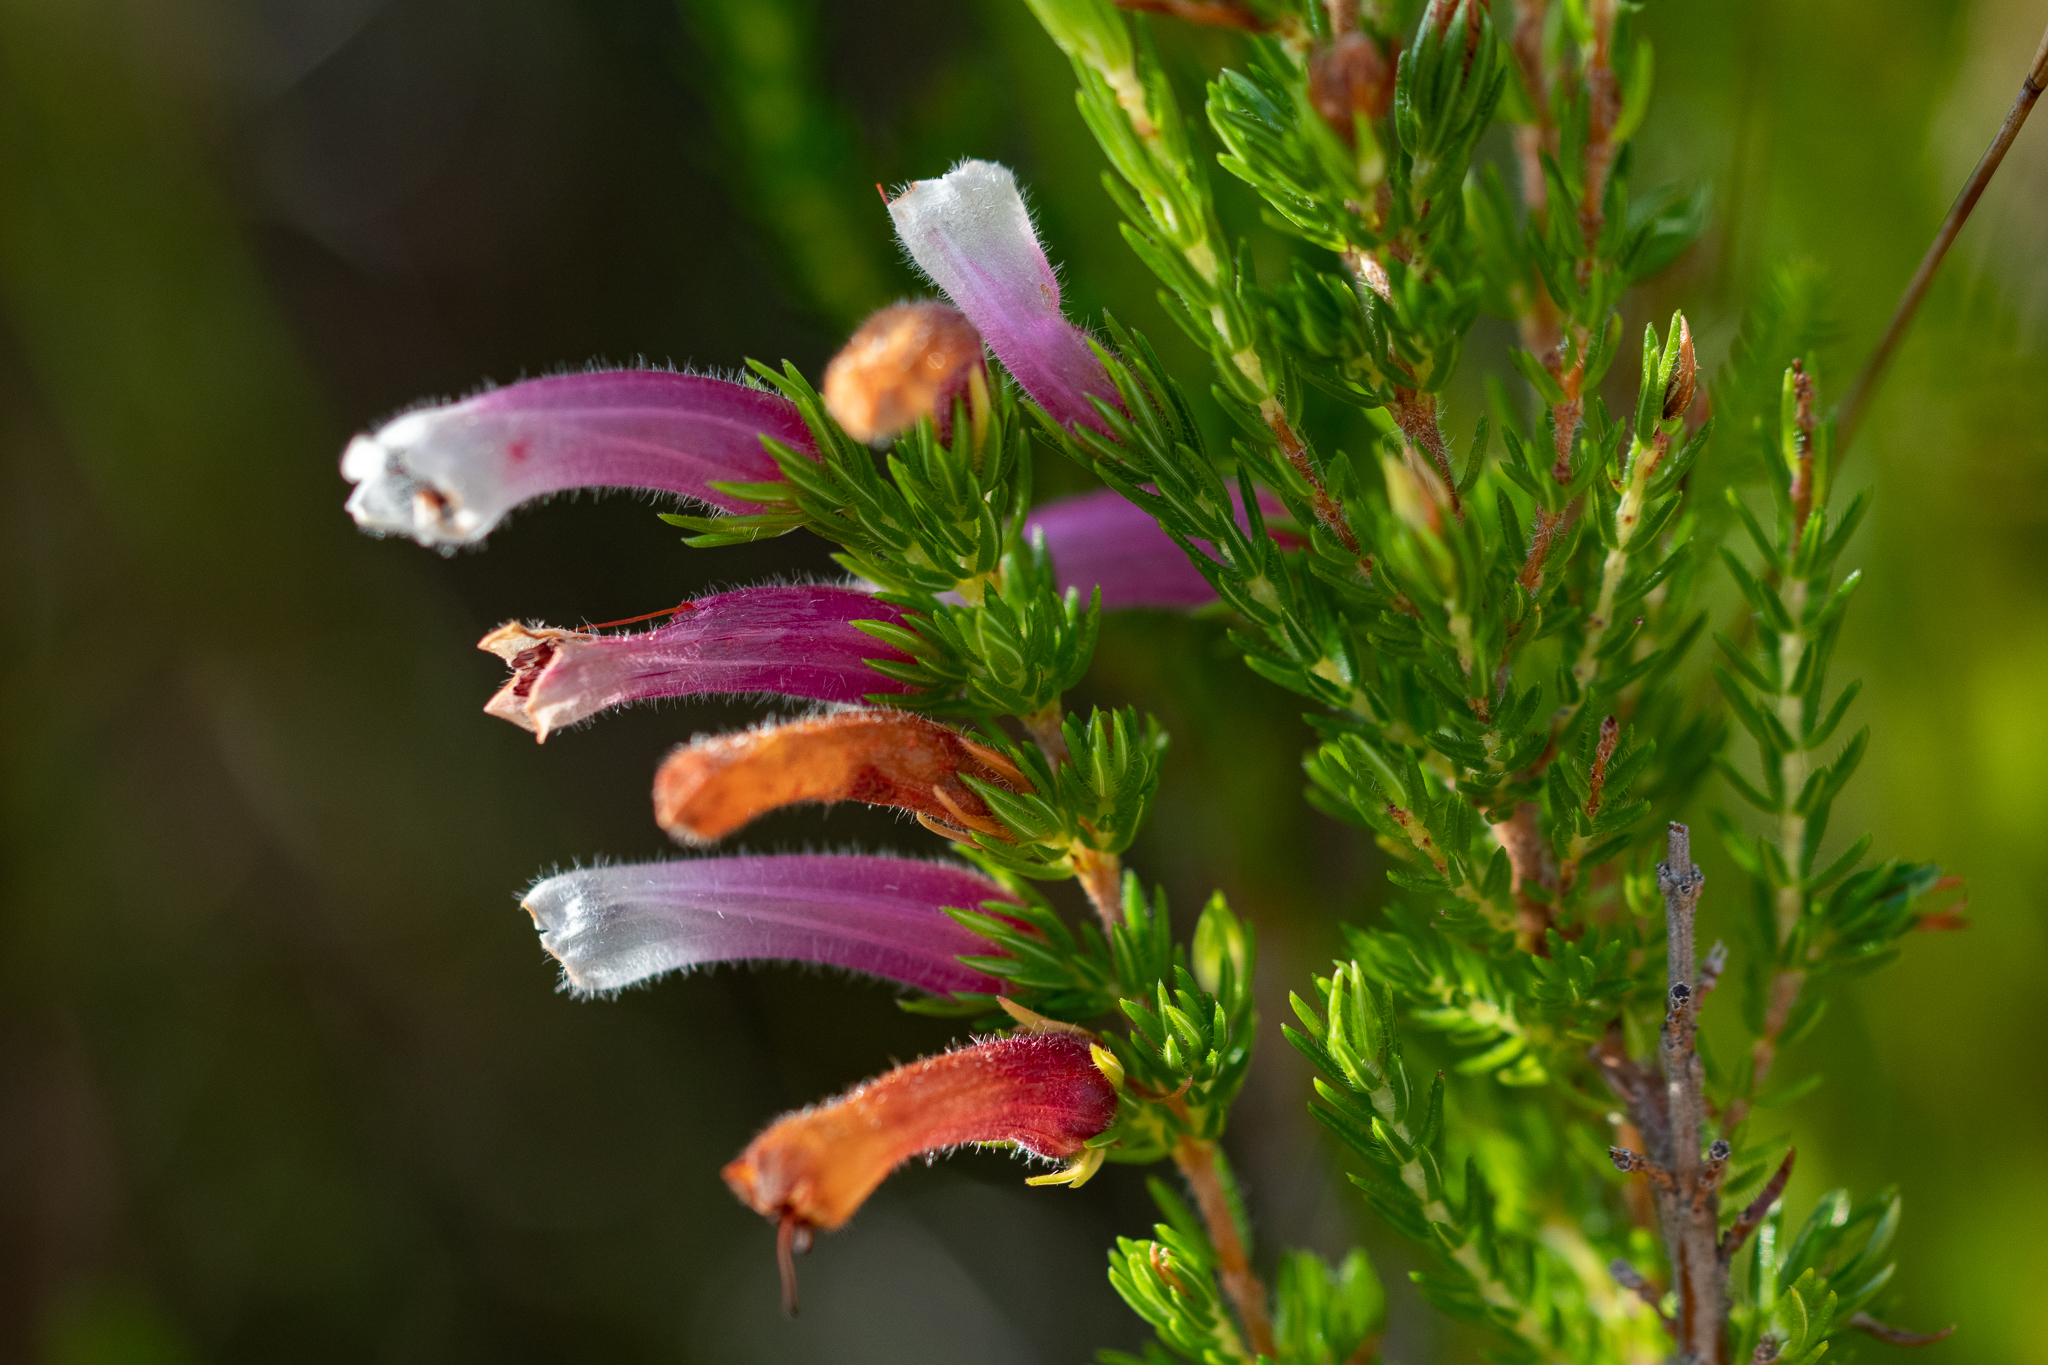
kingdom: Plantae
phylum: Tracheophyta
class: Magnoliopsida
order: Ericales
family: Ericaceae
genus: Erica
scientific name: Erica macowanii
